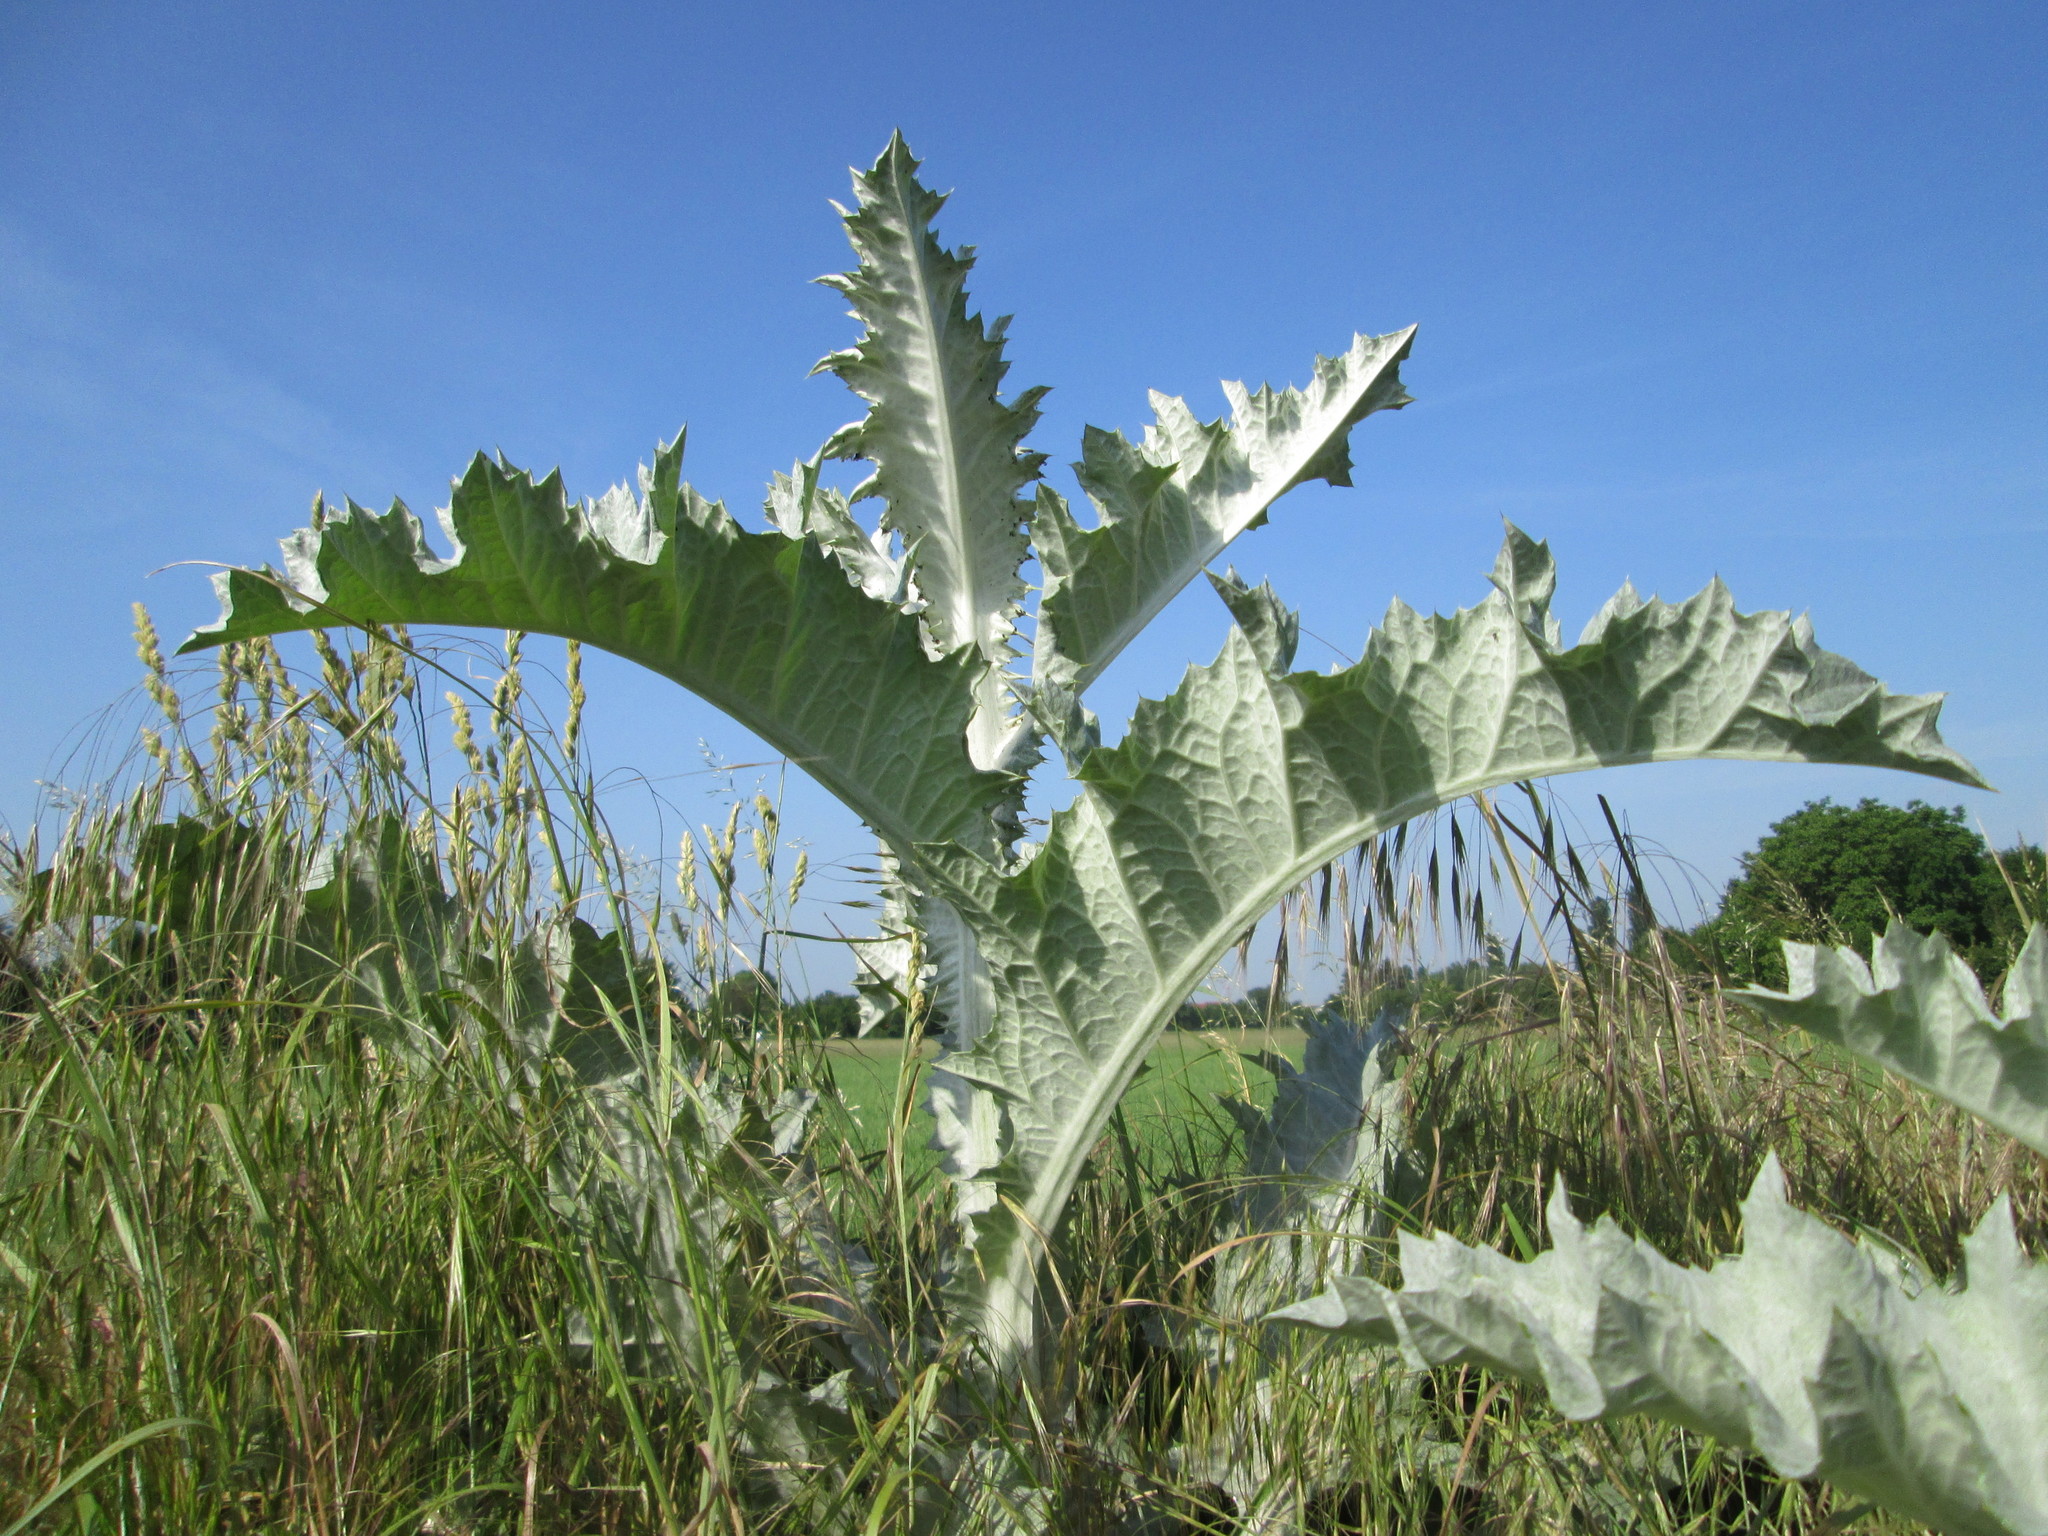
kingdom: Plantae
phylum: Tracheophyta
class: Magnoliopsida
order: Asterales
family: Asteraceae
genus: Onopordum
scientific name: Onopordum acanthium
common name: Scotch thistle
